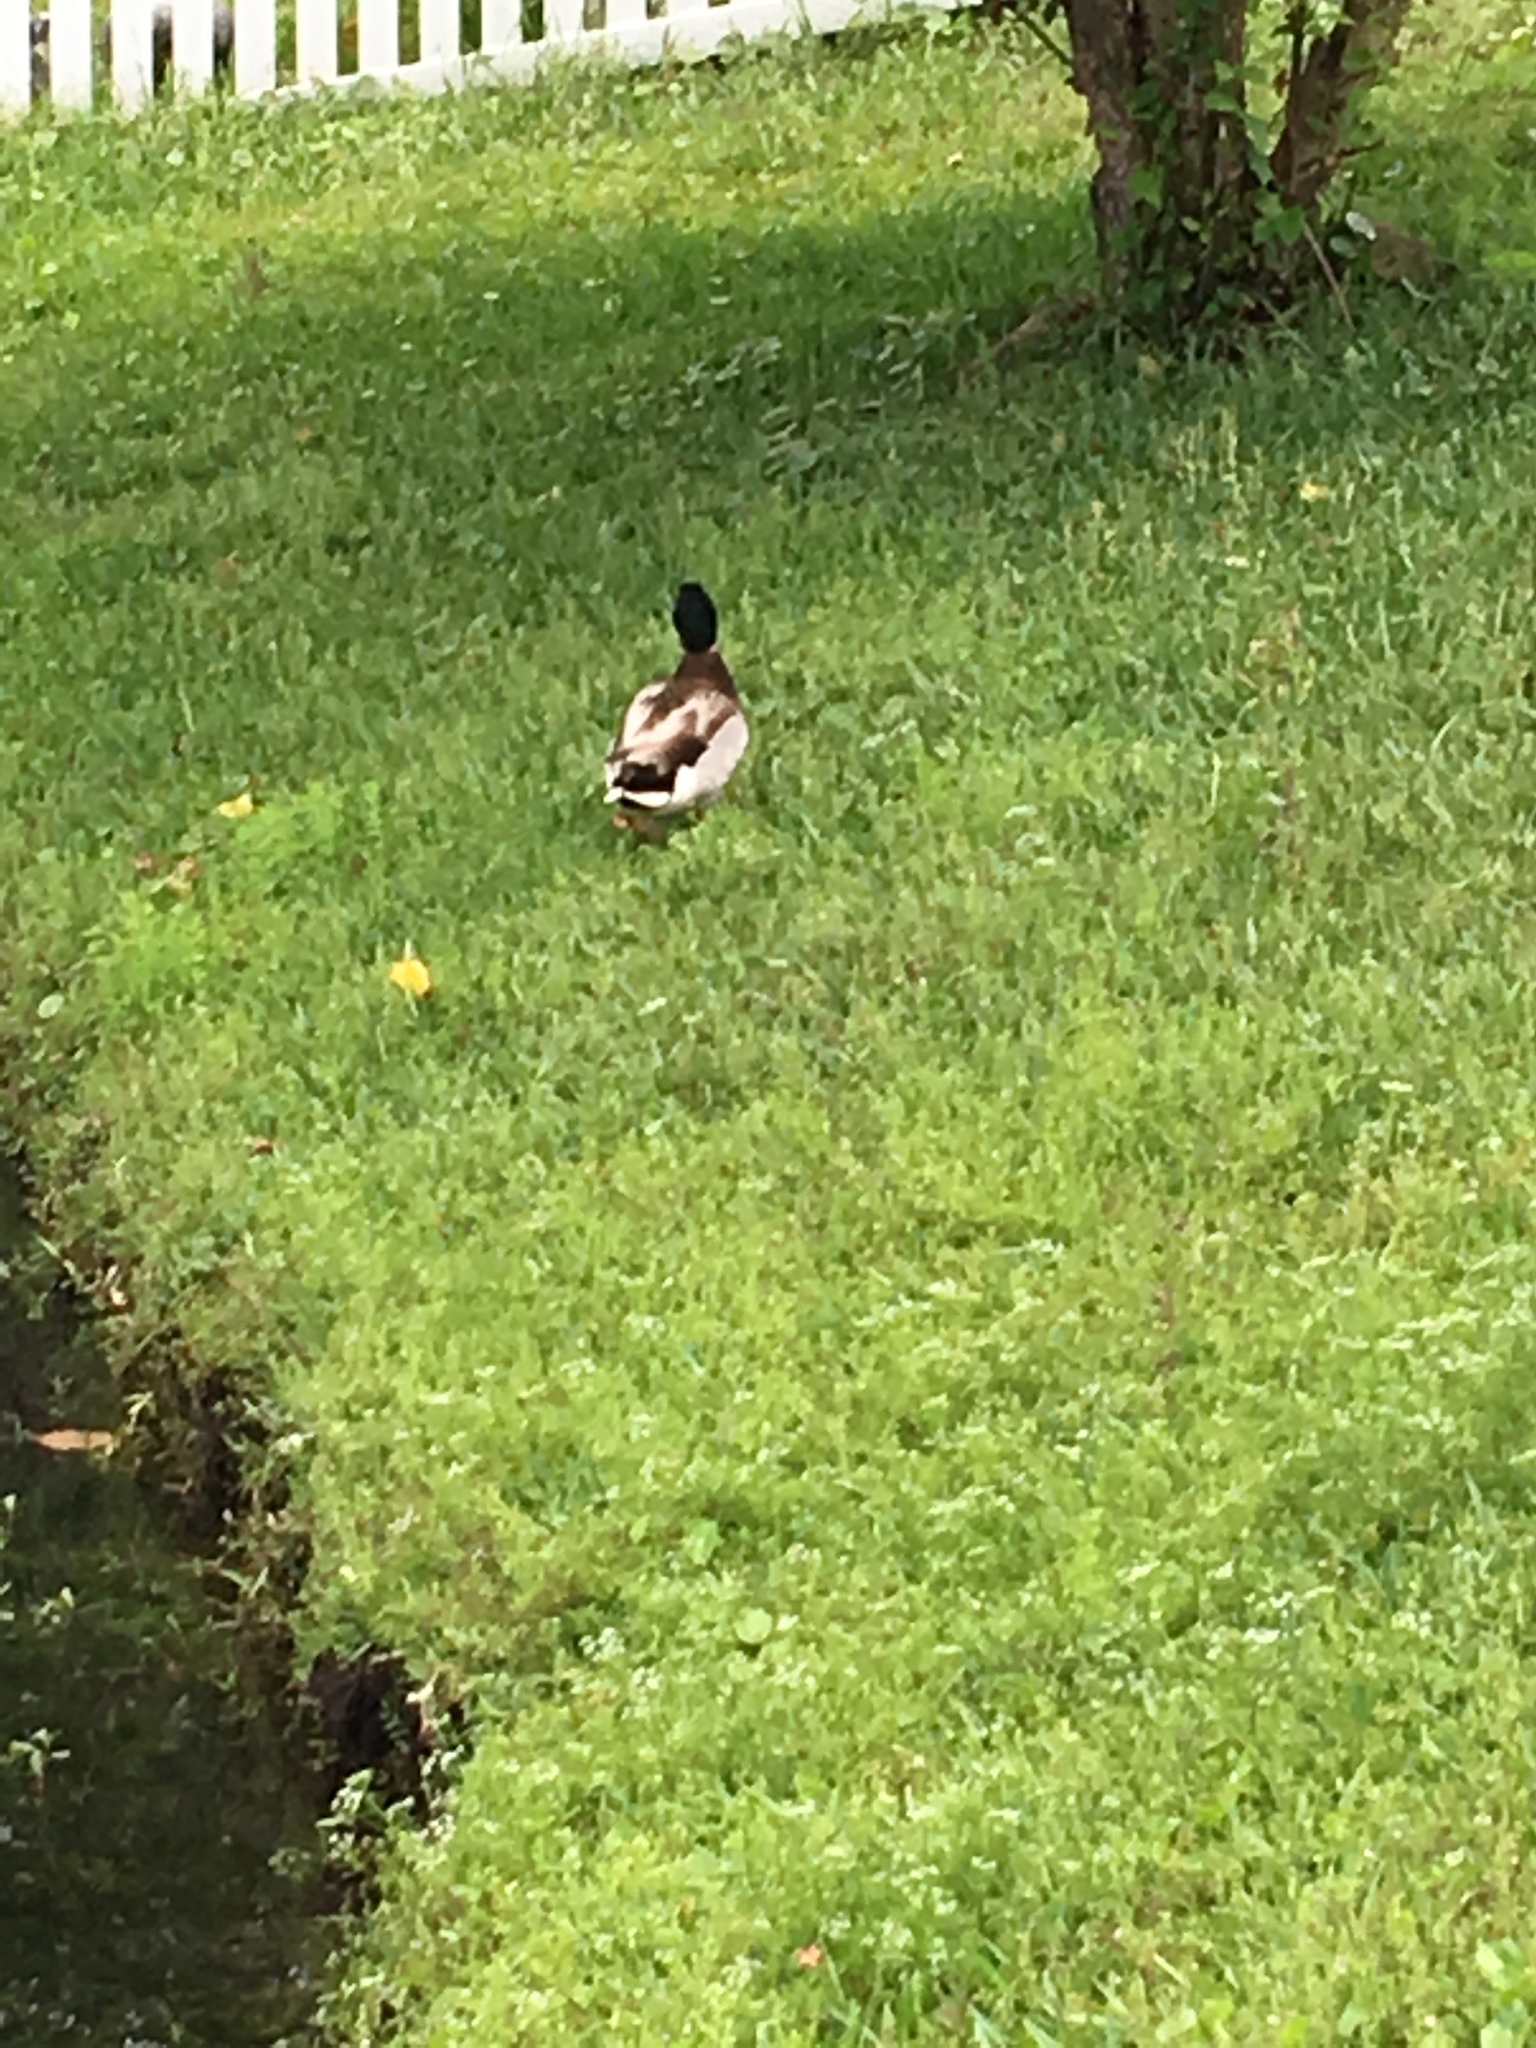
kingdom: Animalia
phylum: Chordata
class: Aves
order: Anseriformes
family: Anatidae
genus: Anas
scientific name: Anas platyrhynchos
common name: Mallard
